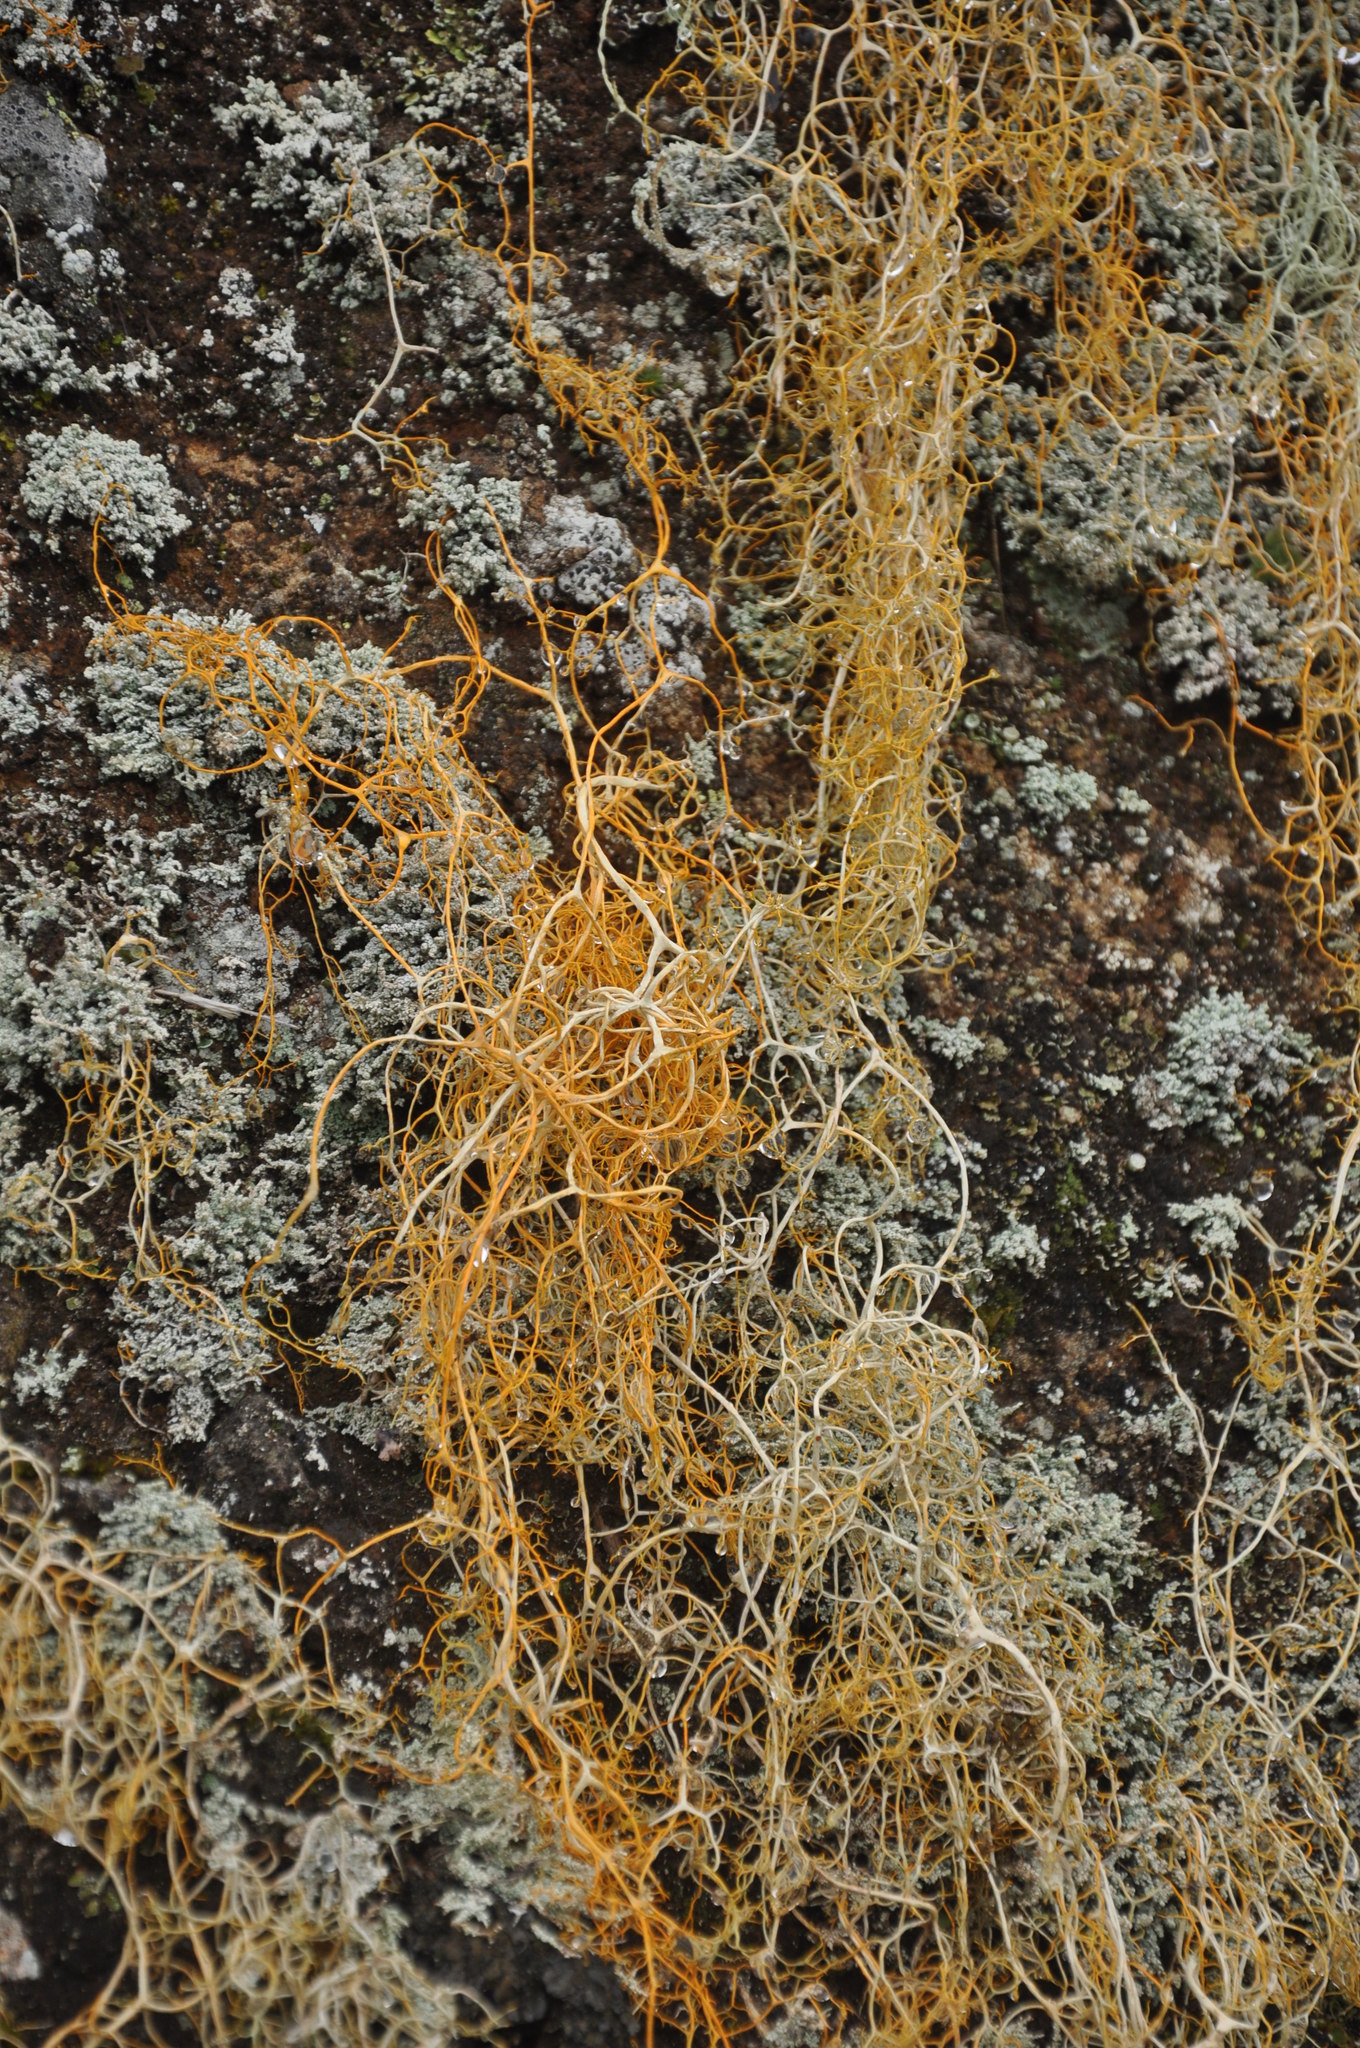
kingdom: Fungi
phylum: Ascomycota
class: Lecanoromycetes
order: Lecanorales
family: Parmeliaceae
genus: Lethariella
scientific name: Lethariella canariensis
